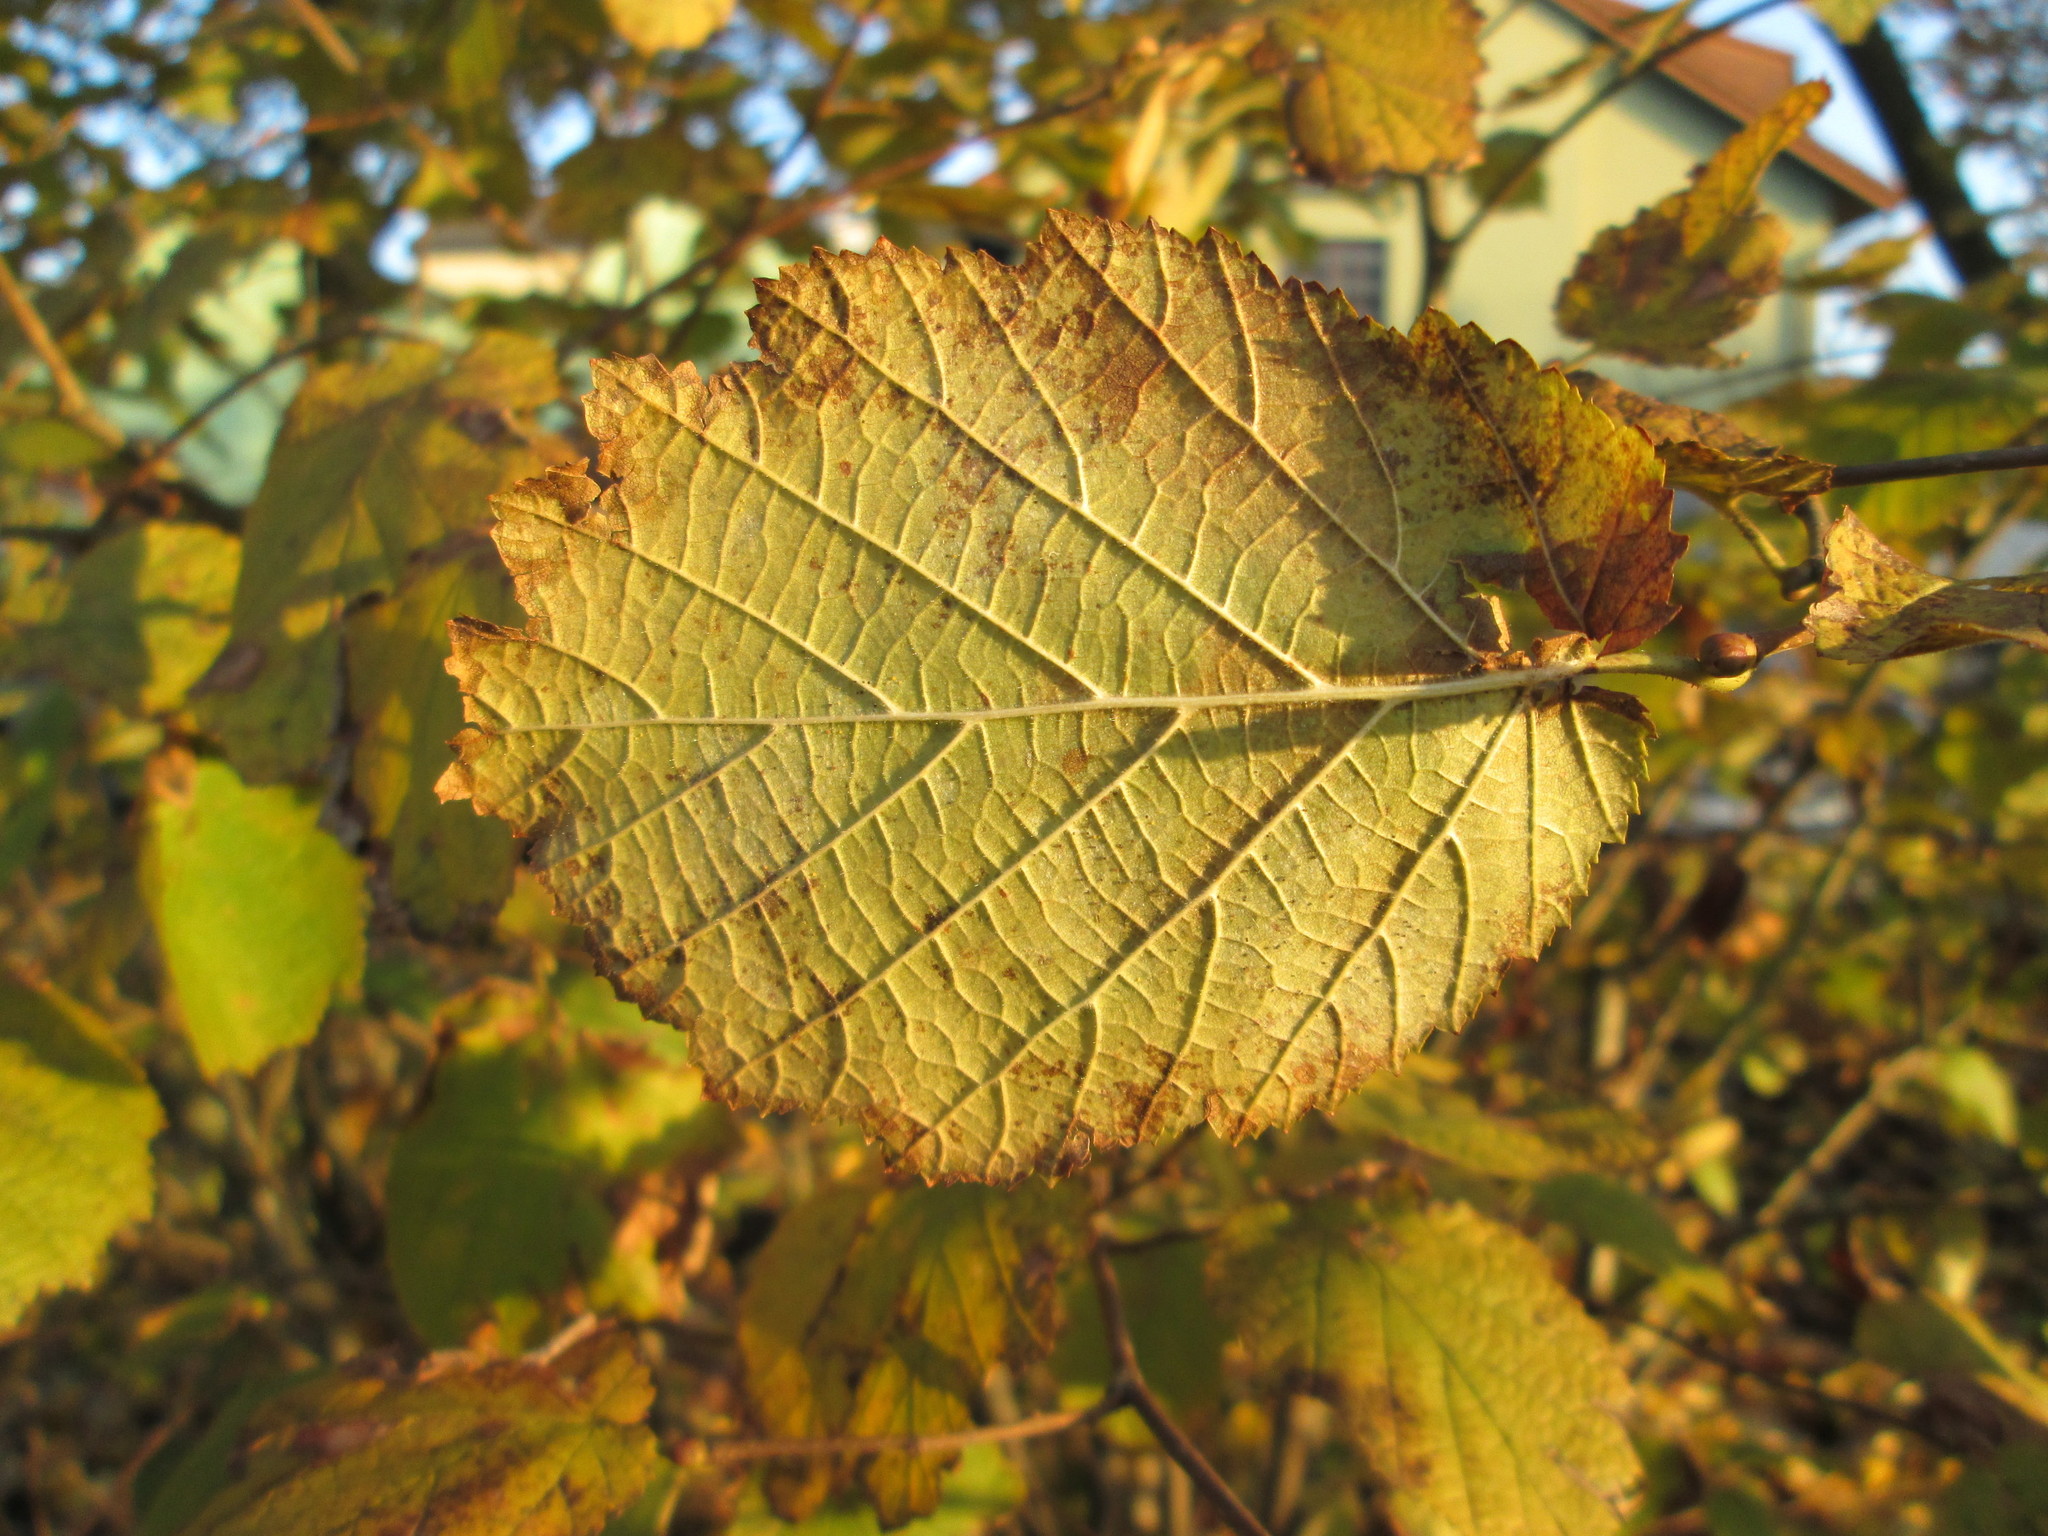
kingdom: Plantae
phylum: Tracheophyta
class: Magnoliopsida
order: Fagales
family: Betulaceae
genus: Corylus
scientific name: Corylus avellana
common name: European hazel
